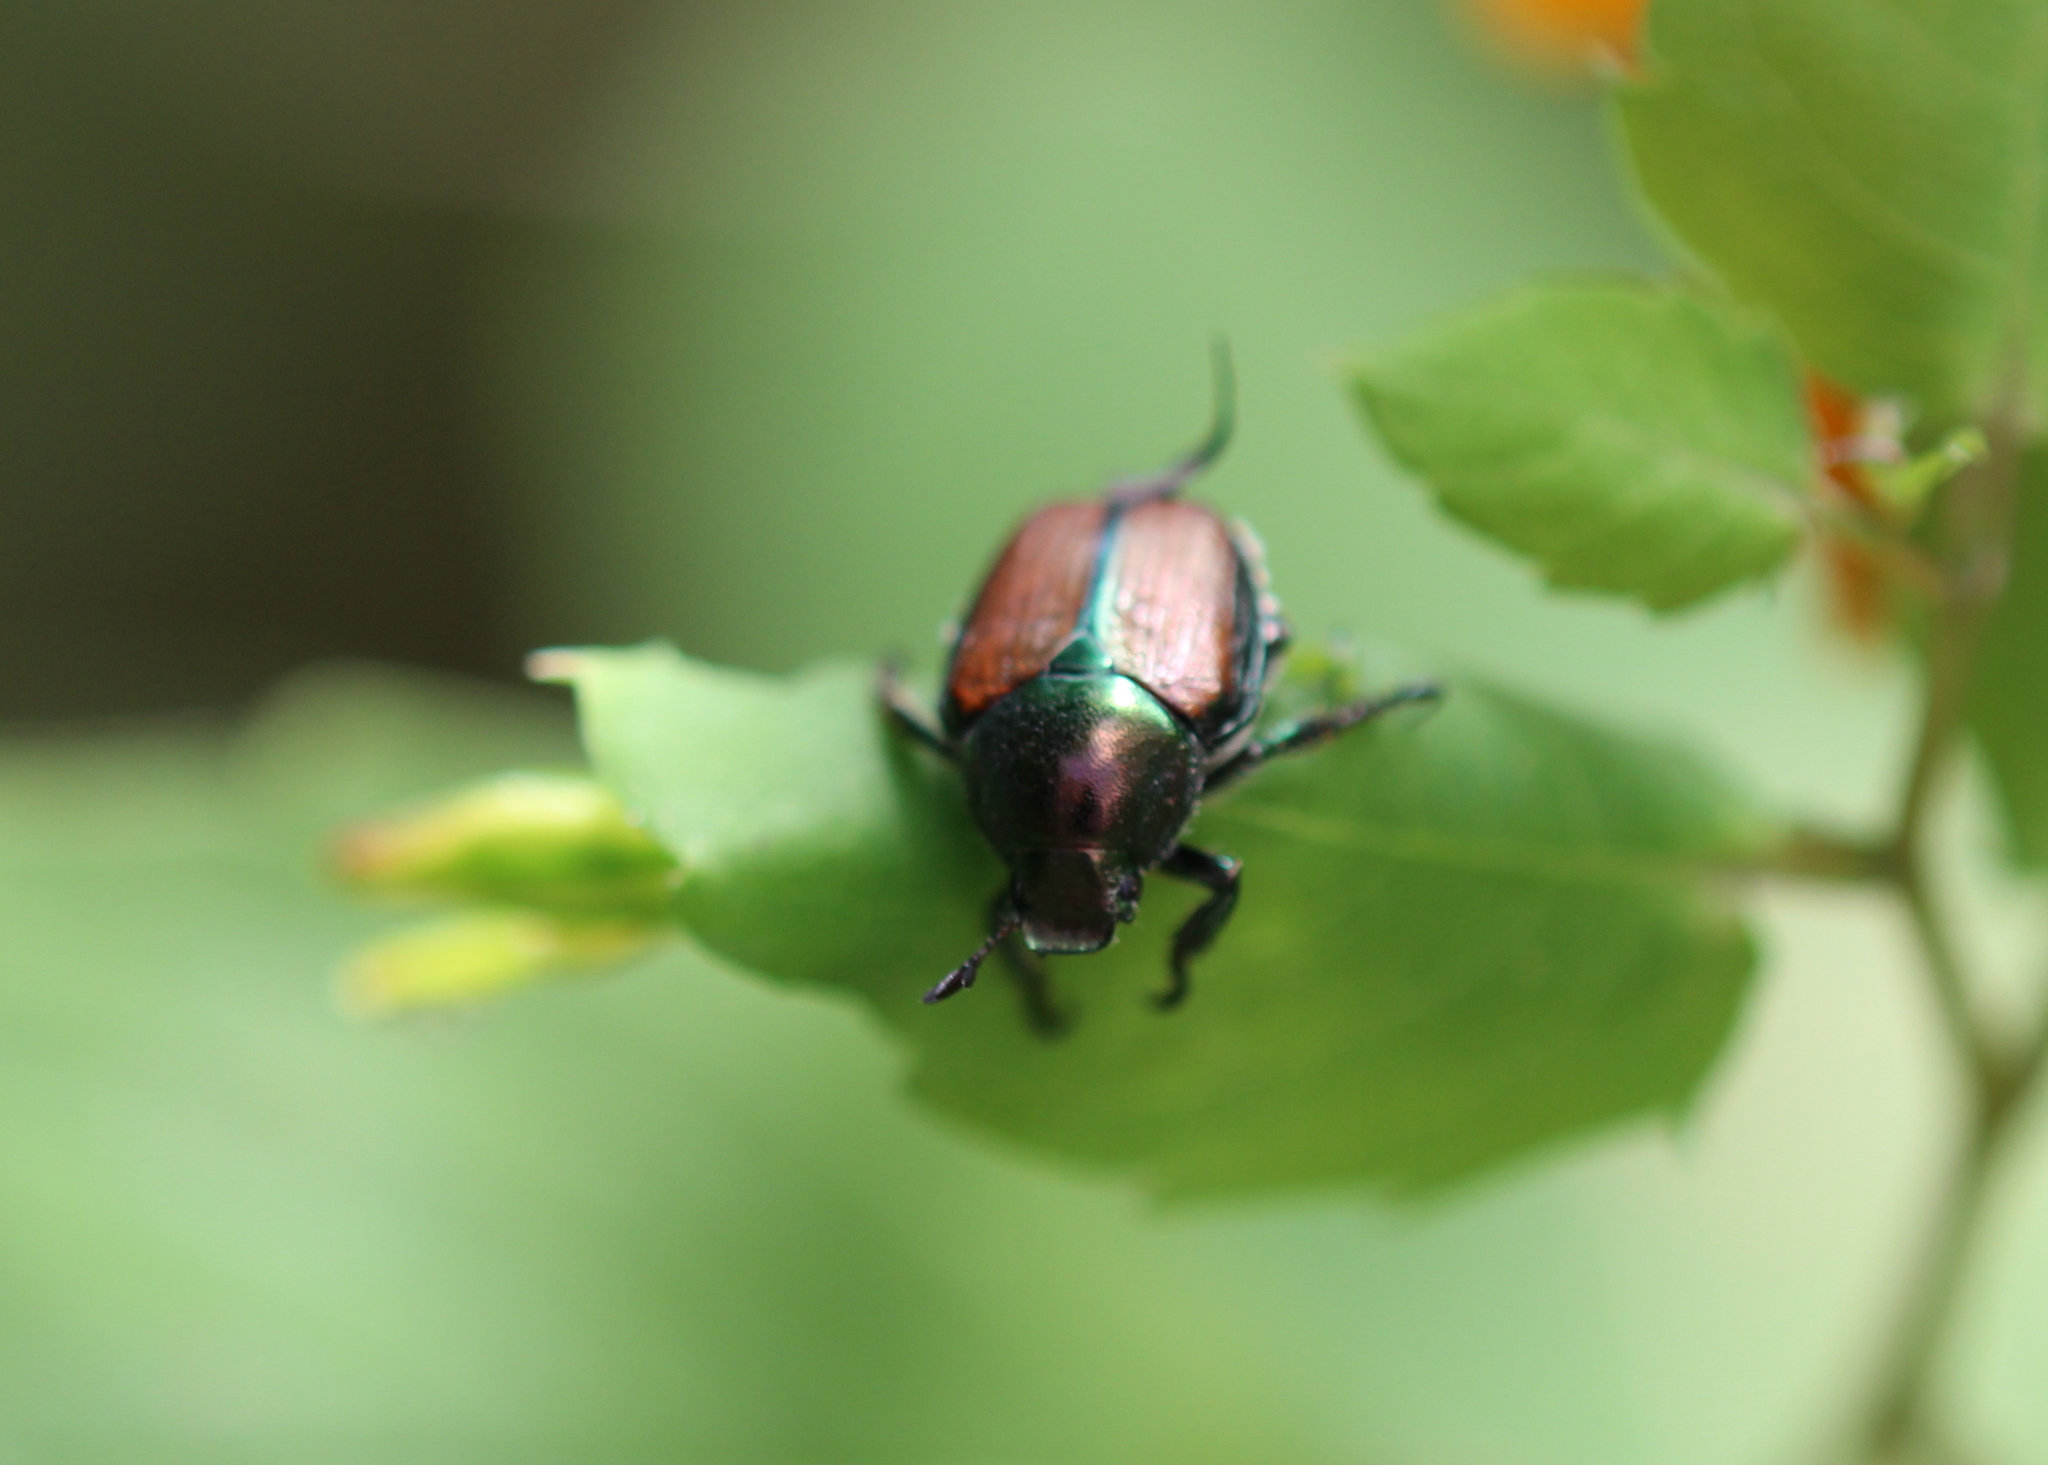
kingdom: Animalia
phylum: Arthropoda
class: Insecta
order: Coleoptera
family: Scarabaeidae
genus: Popillia
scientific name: Popillia japonica
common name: Japanese beetle
